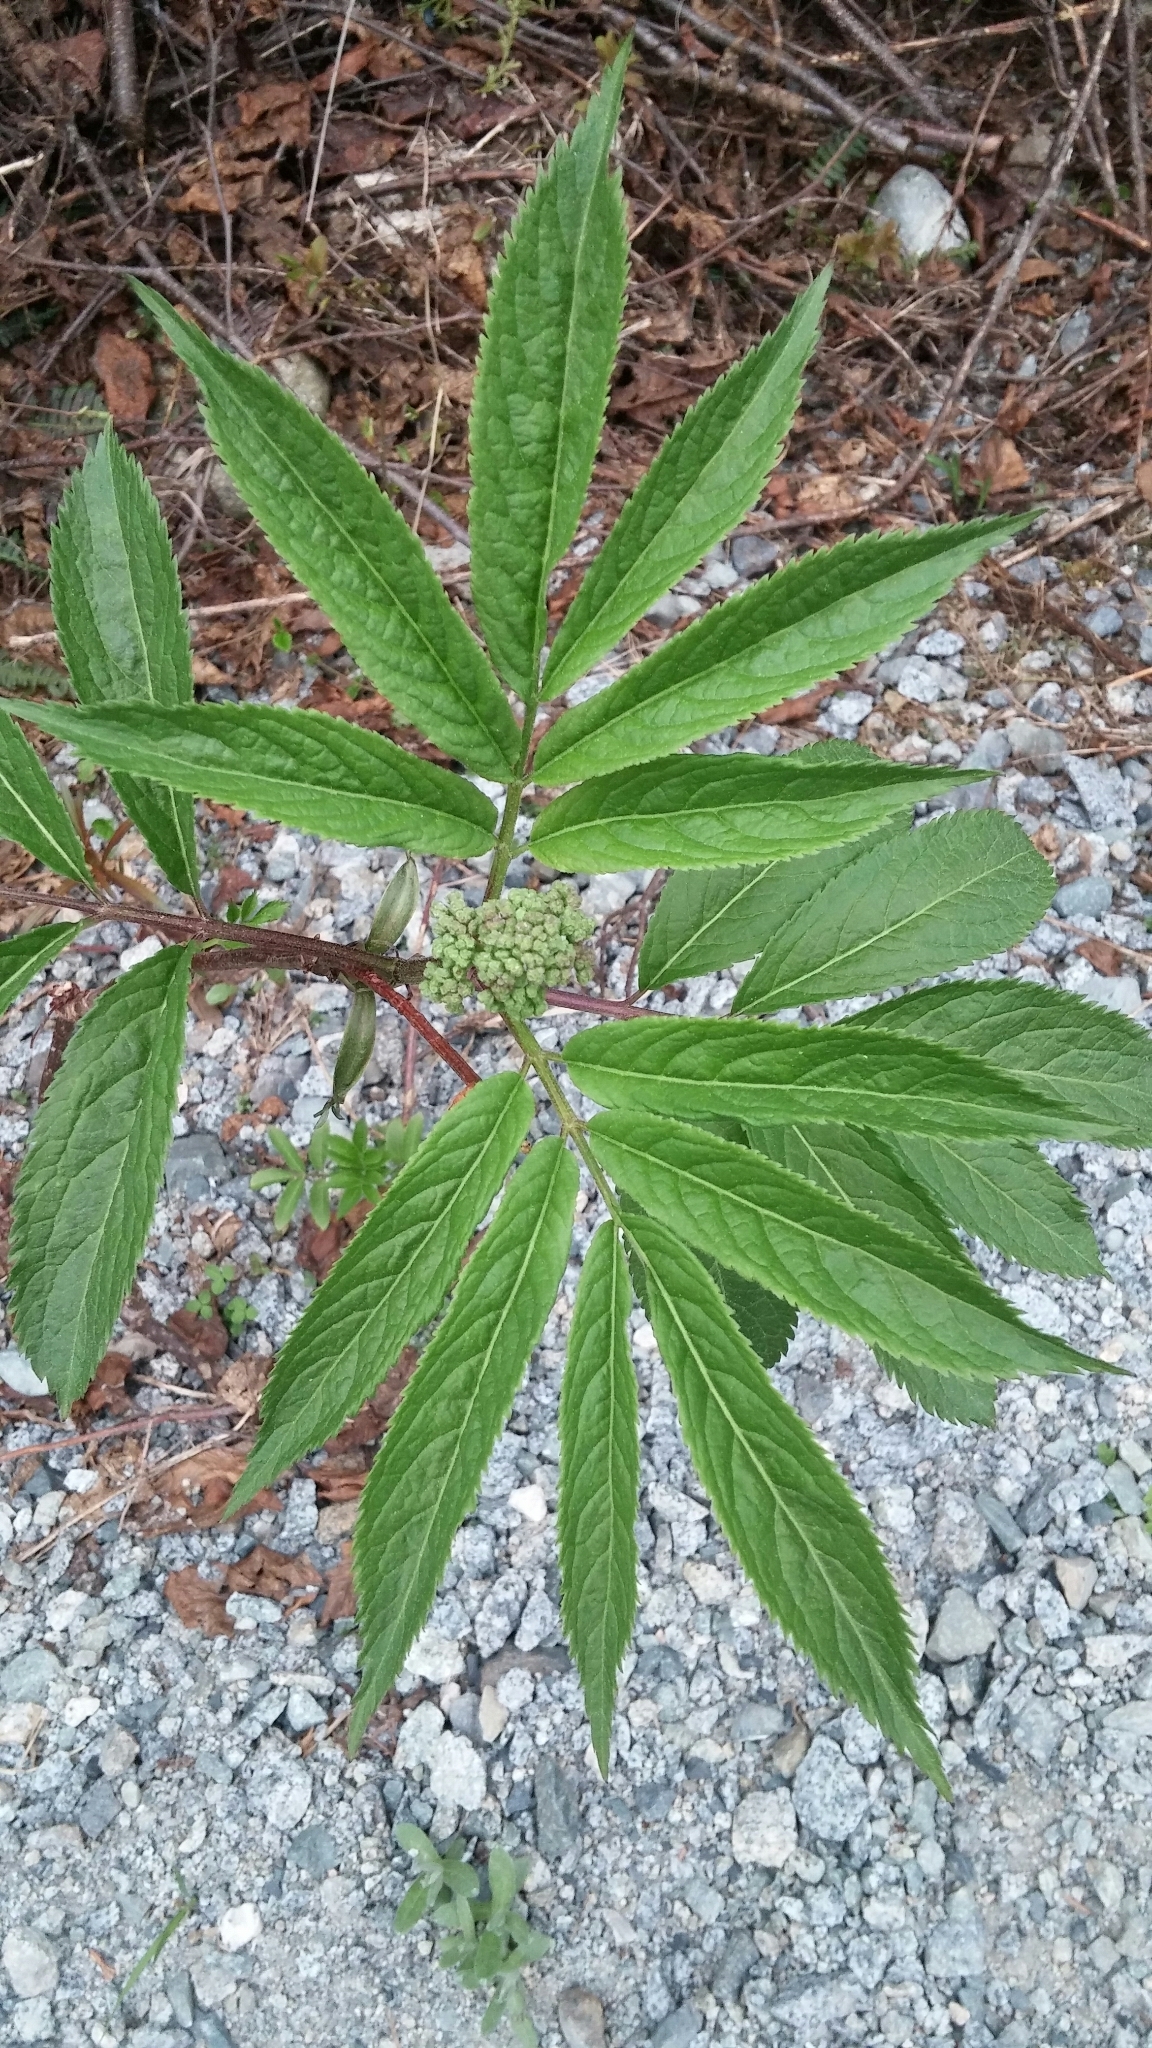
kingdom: Plantae
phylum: Tracheophyta
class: Magnoliopsida
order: Dipsacales
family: Viburnaceae
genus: Sambucus
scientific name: Sambucus racemosa
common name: Red-berried elder
